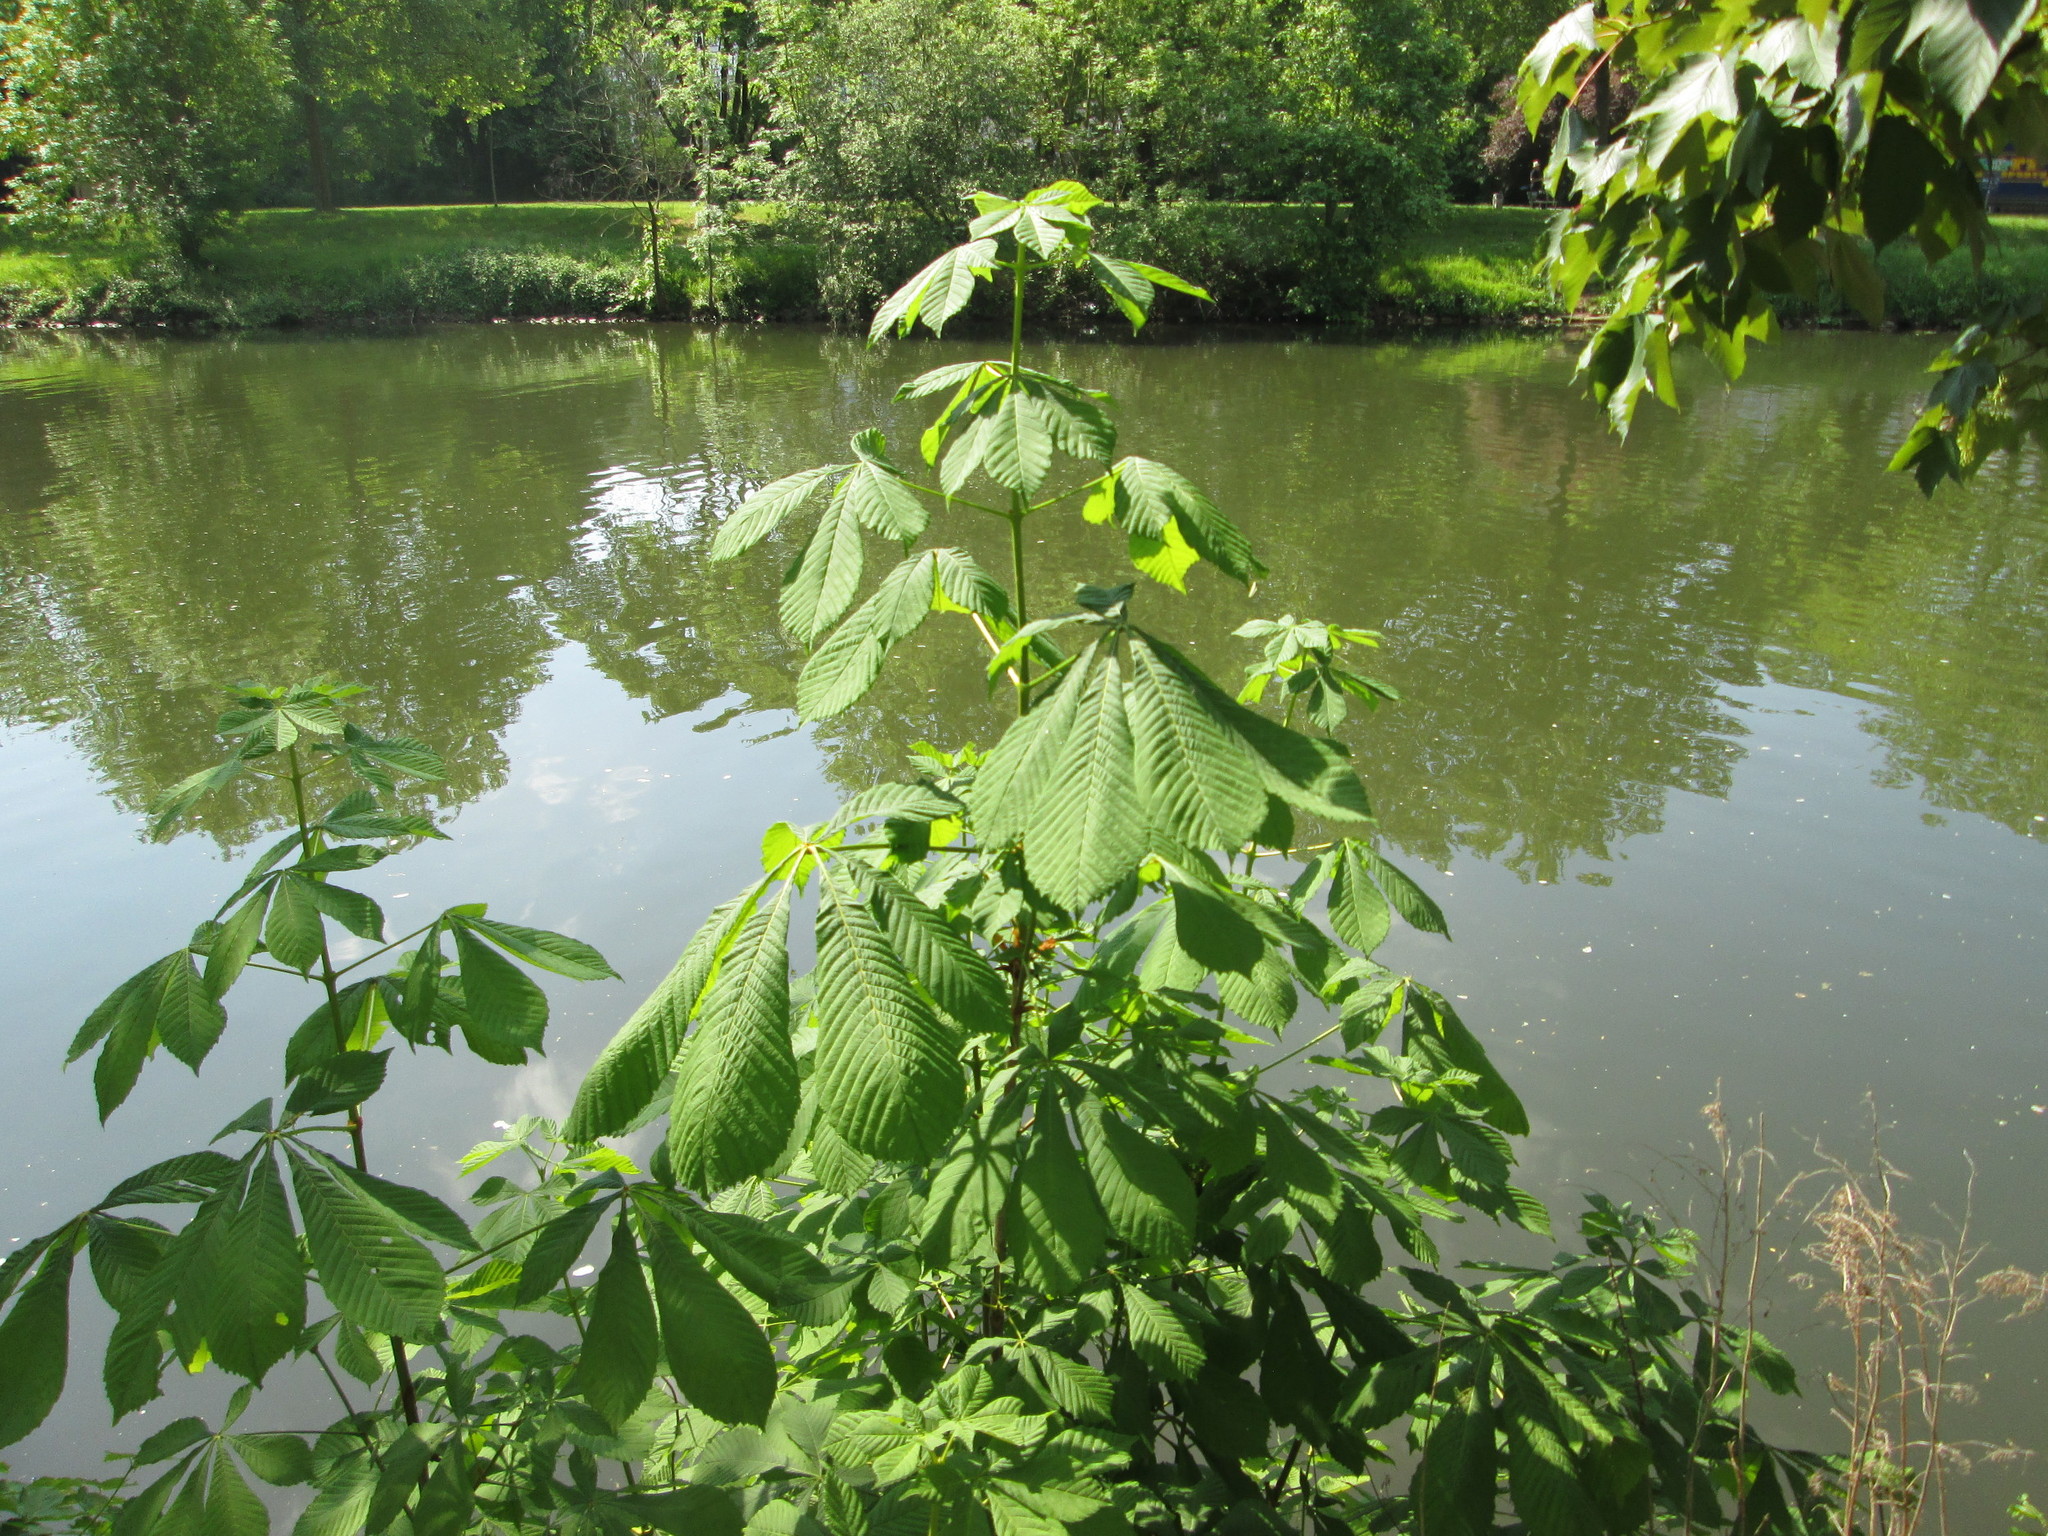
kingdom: Plantae
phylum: Tracheophyta
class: Magnoliopsida
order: Sapindales
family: Sapindaceae
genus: Aesculus
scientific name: Aesculus hippocastanum
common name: Horse-chestnut
